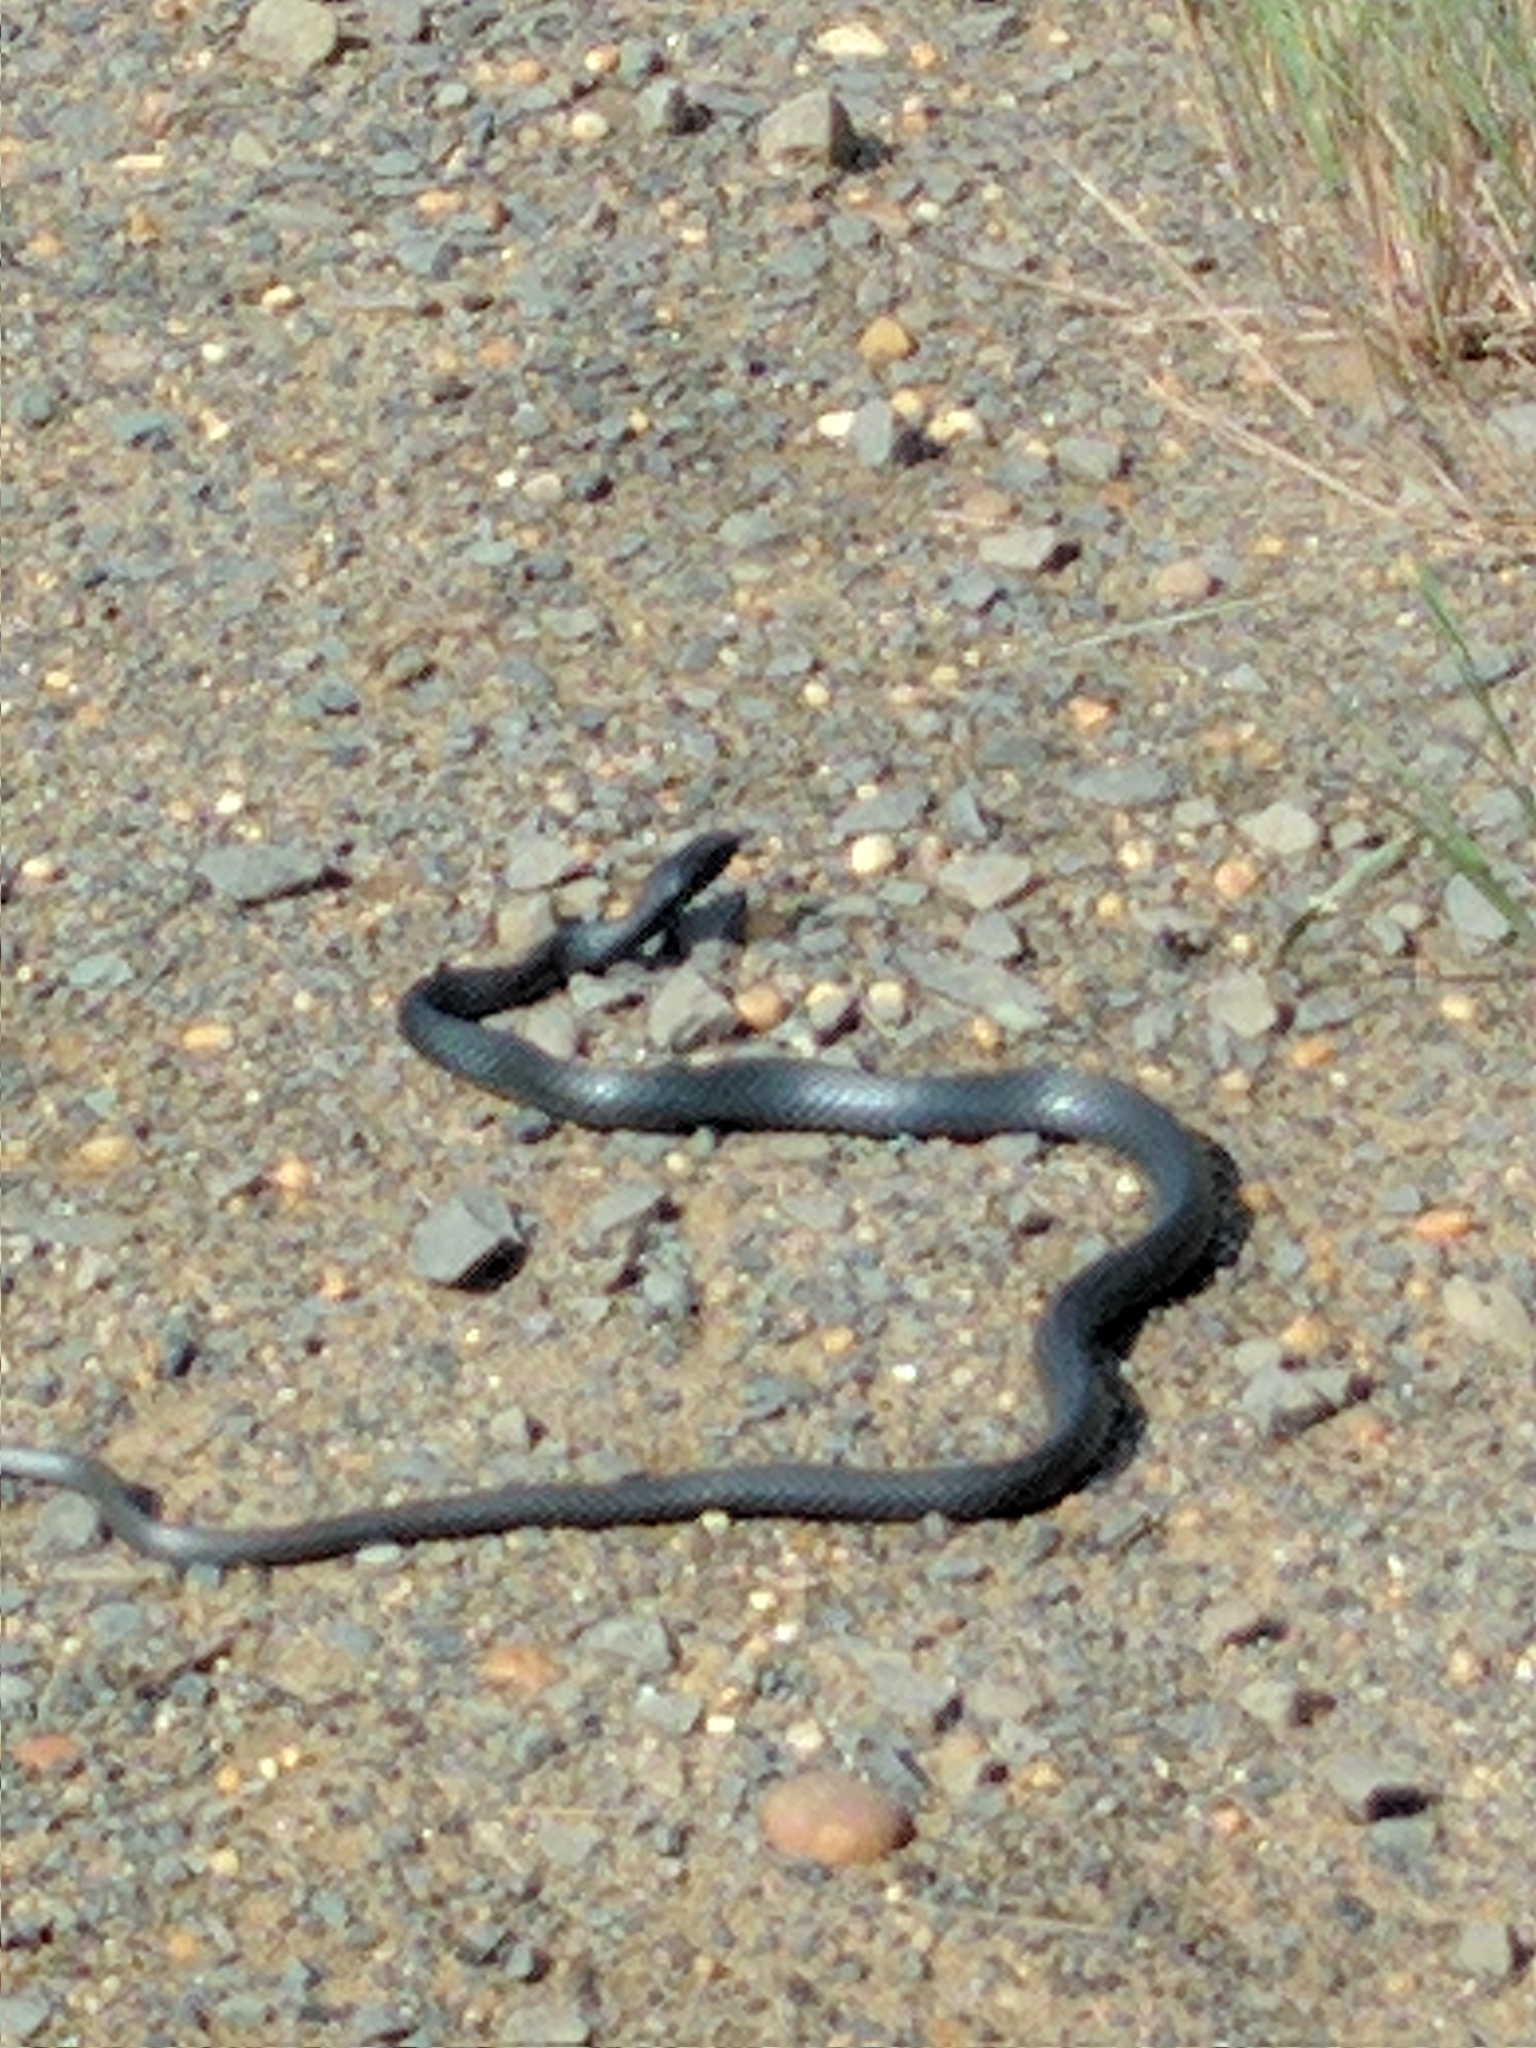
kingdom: Animalia
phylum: Chordata
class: Squamata
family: Colubridae
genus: Coluber
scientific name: Coluber constrictor
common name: Eastern racer
